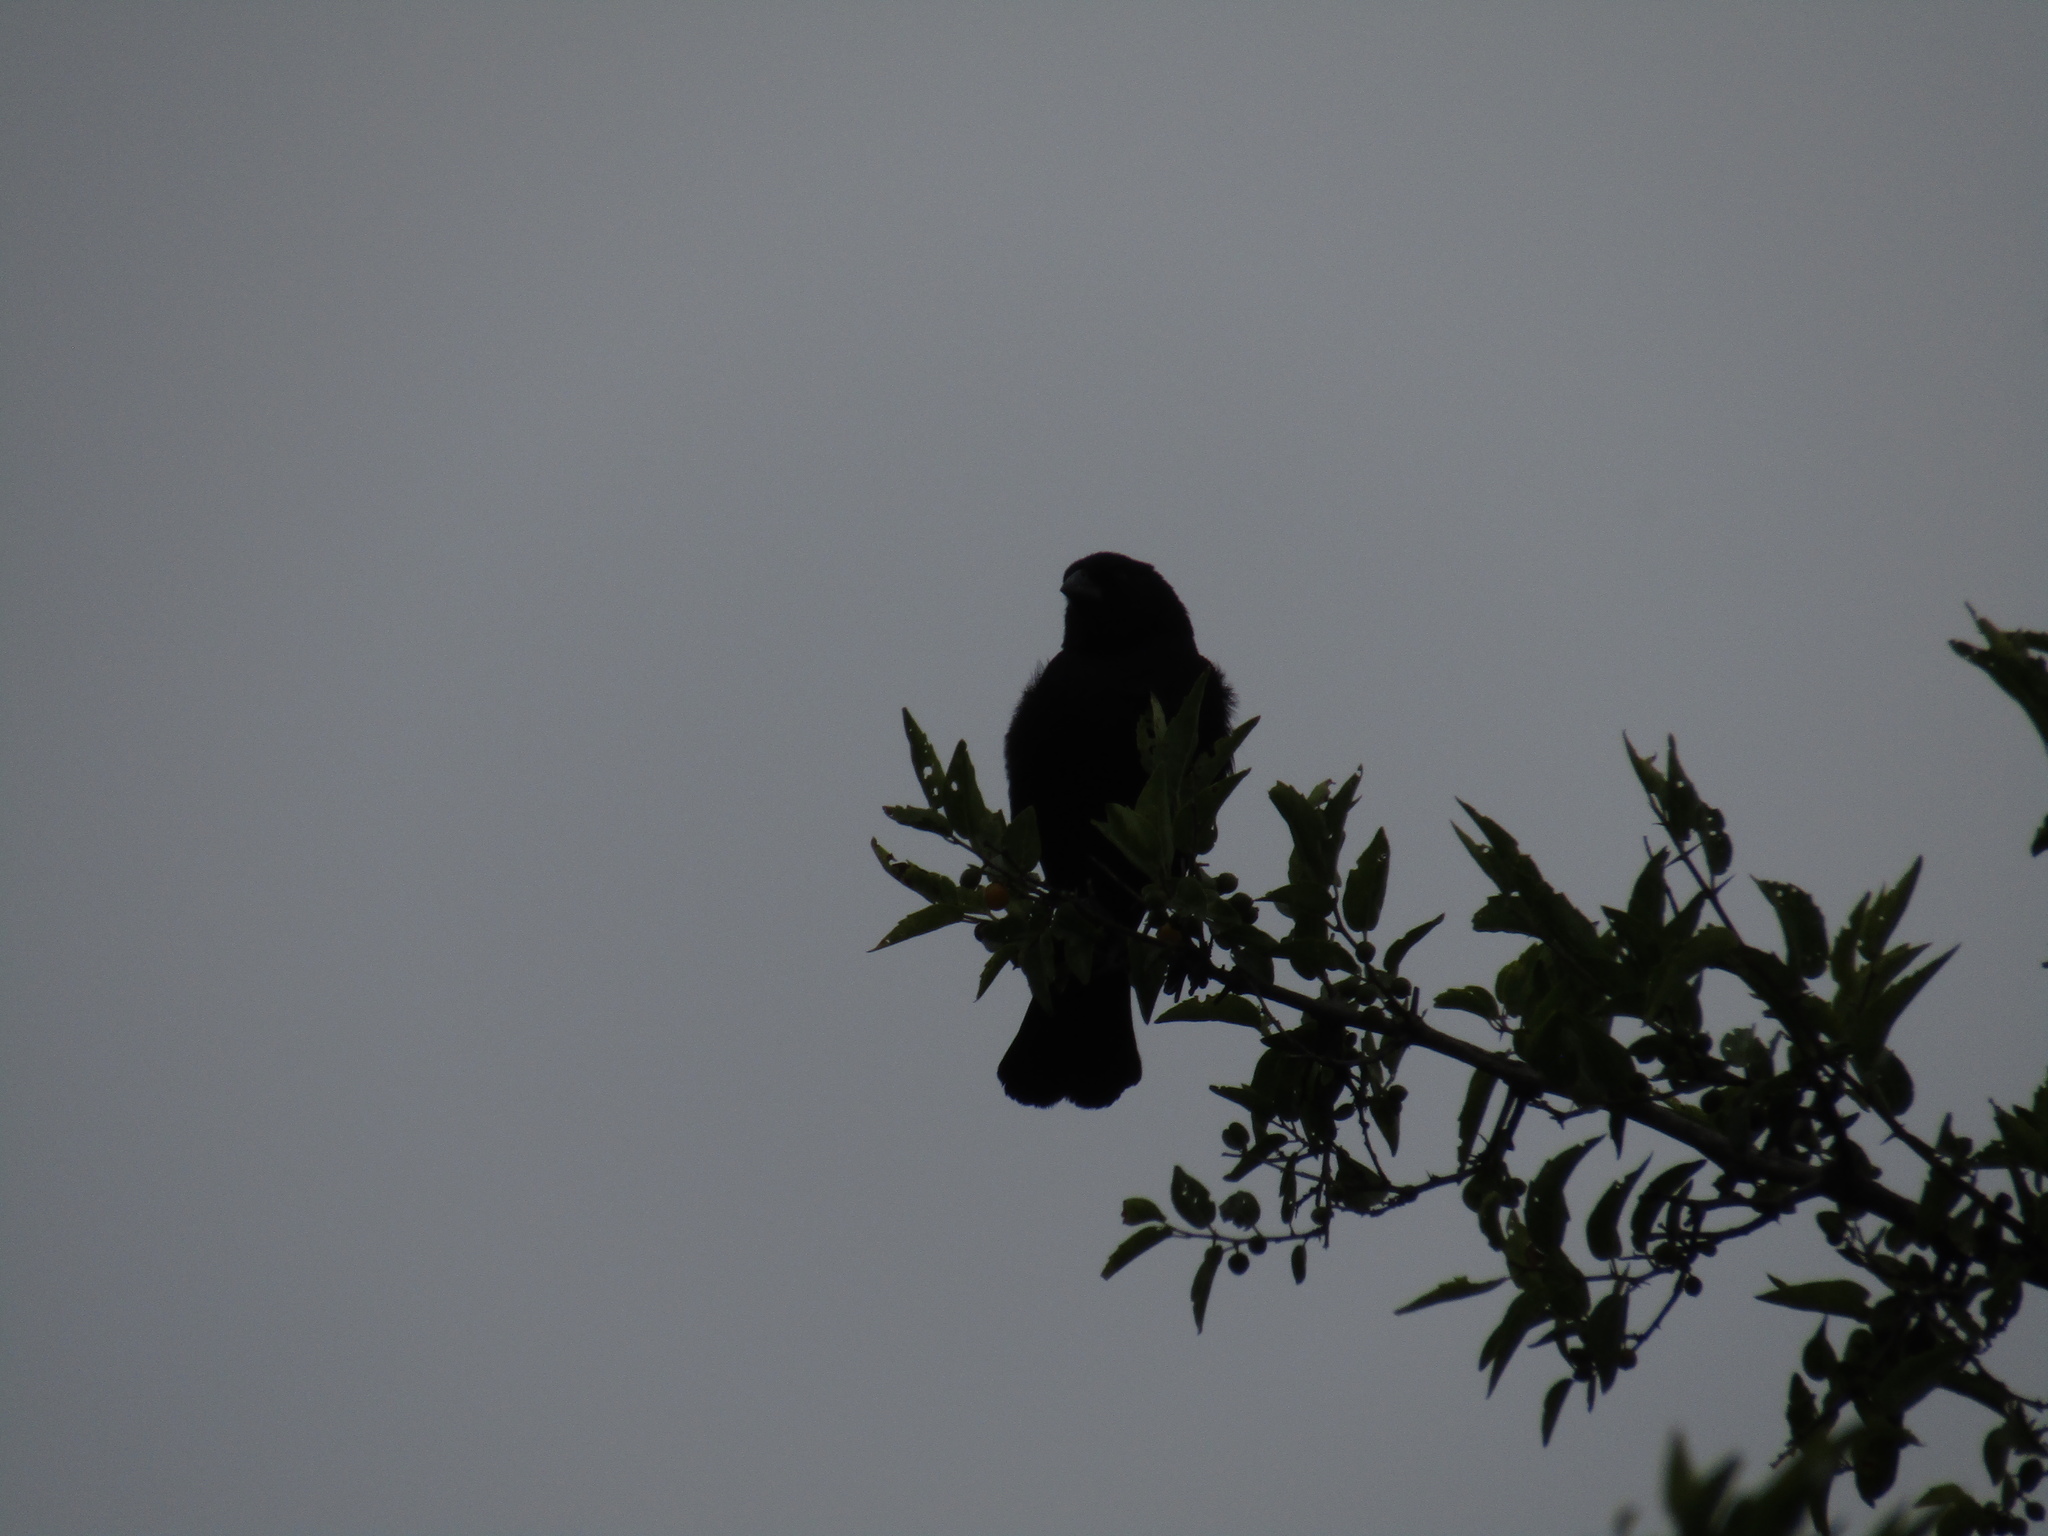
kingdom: Animalia
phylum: Chordata
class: Aves
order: Passeriformes
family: Icteridae
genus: Molothrus
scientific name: Molothrus rufoaxillaris
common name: Screaming cowbird
